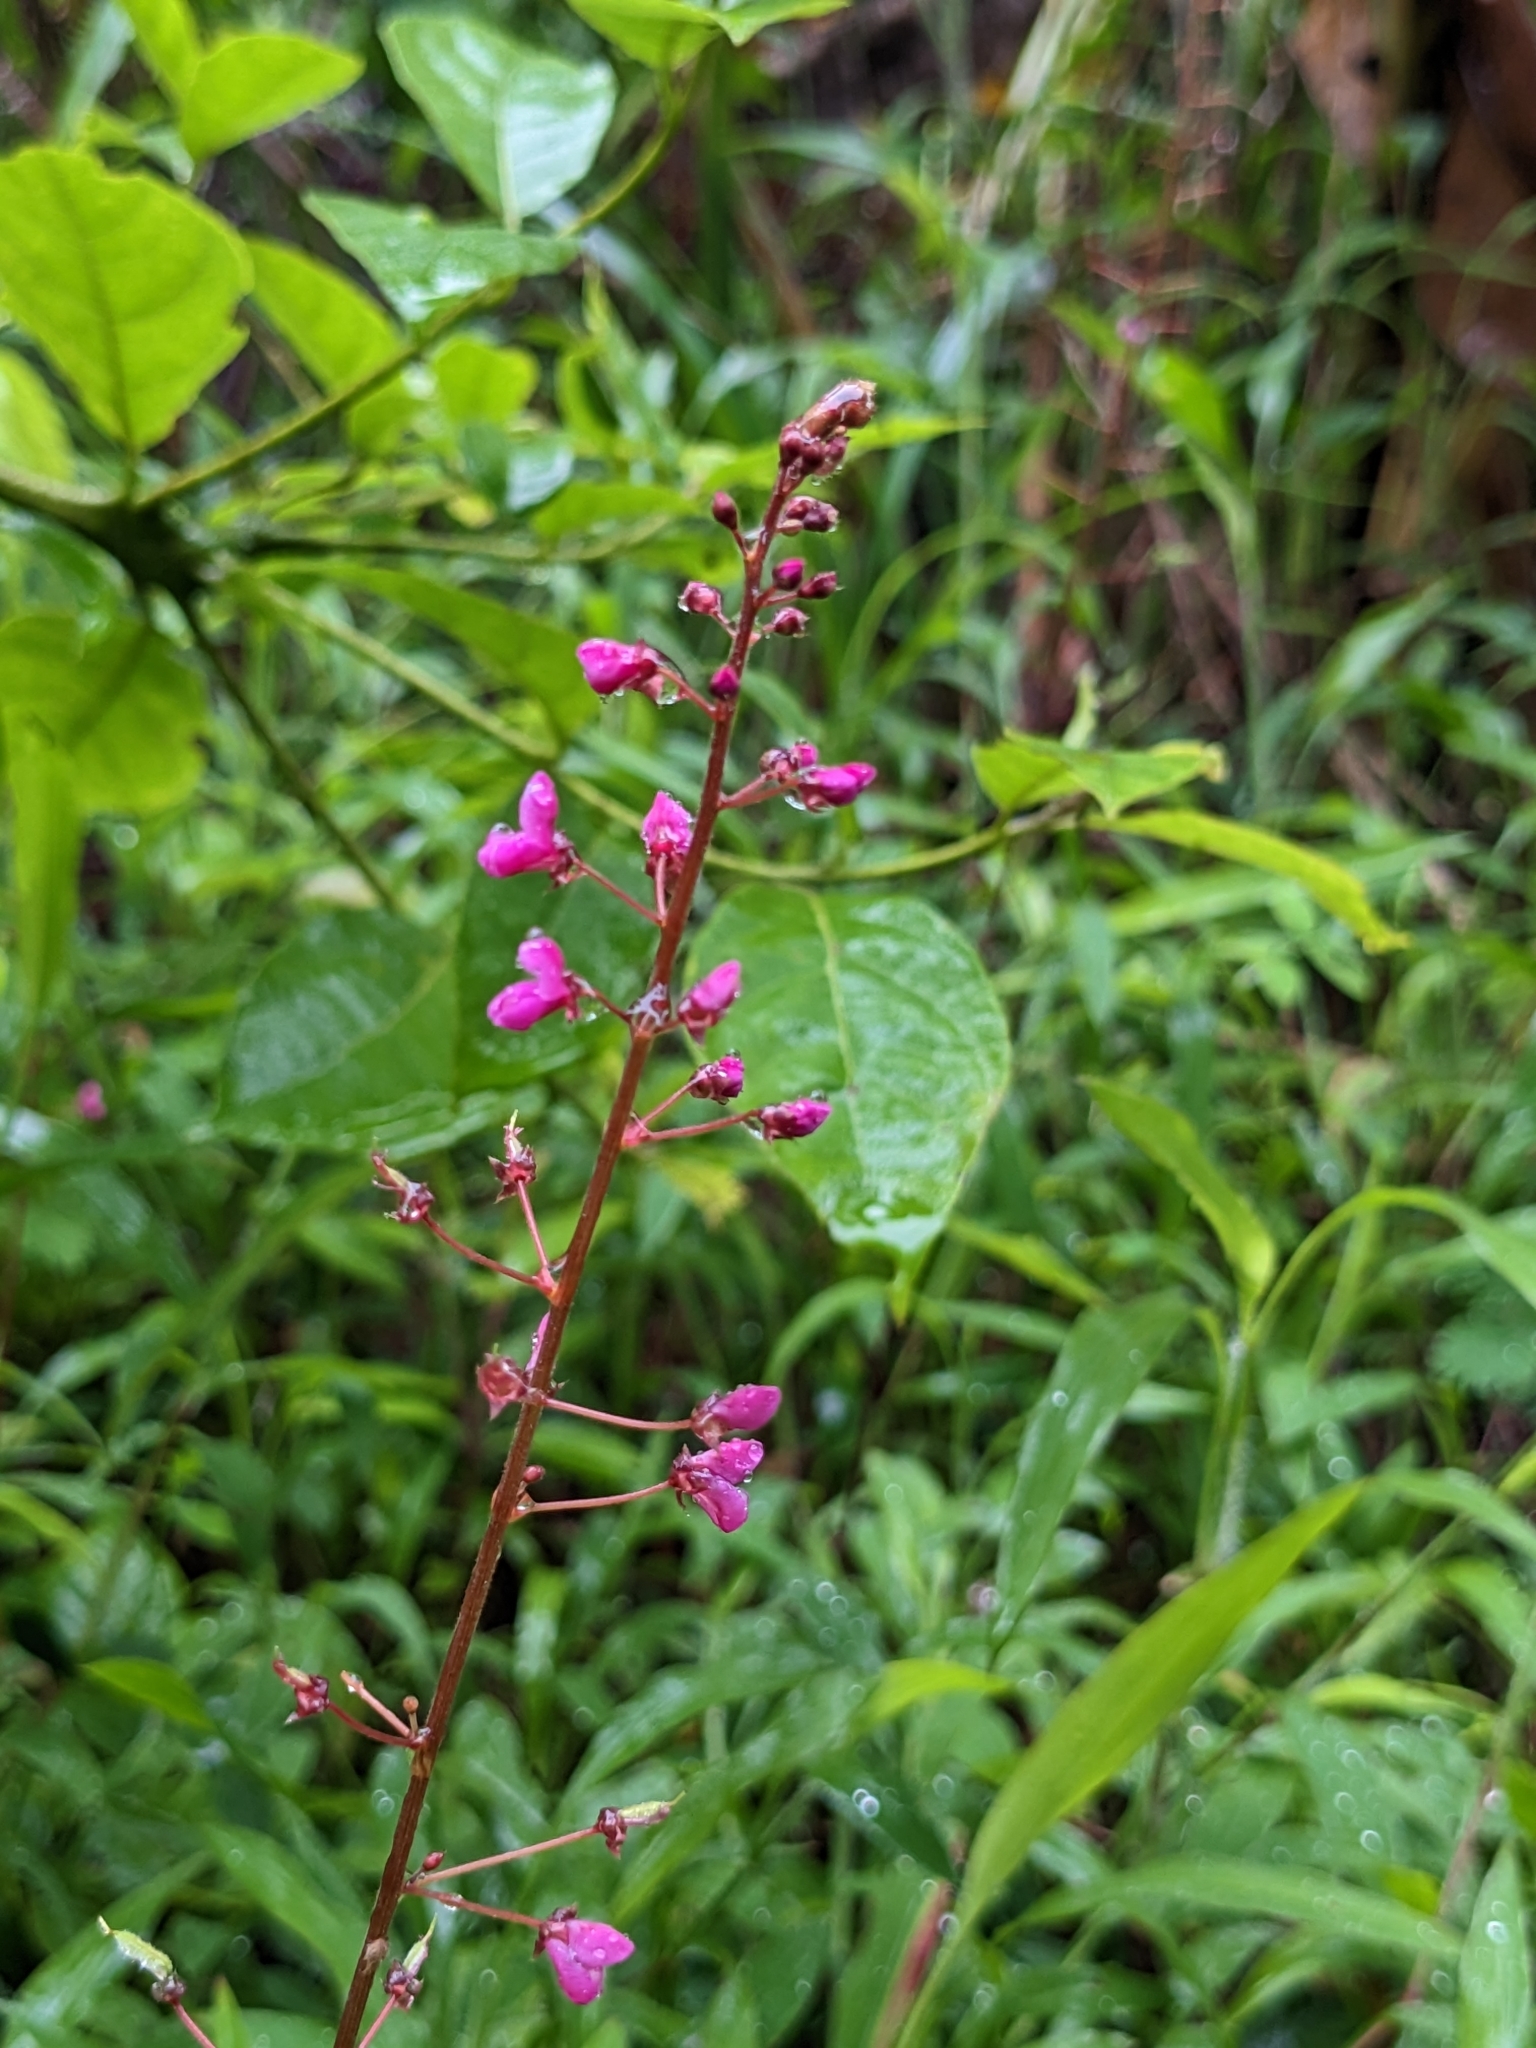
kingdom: Plantae
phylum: Tracheophyta
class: Magnoliopsida
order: Fabales
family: Fabaceae
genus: Desmodium
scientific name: Desmodium incanum
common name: Tickclover
